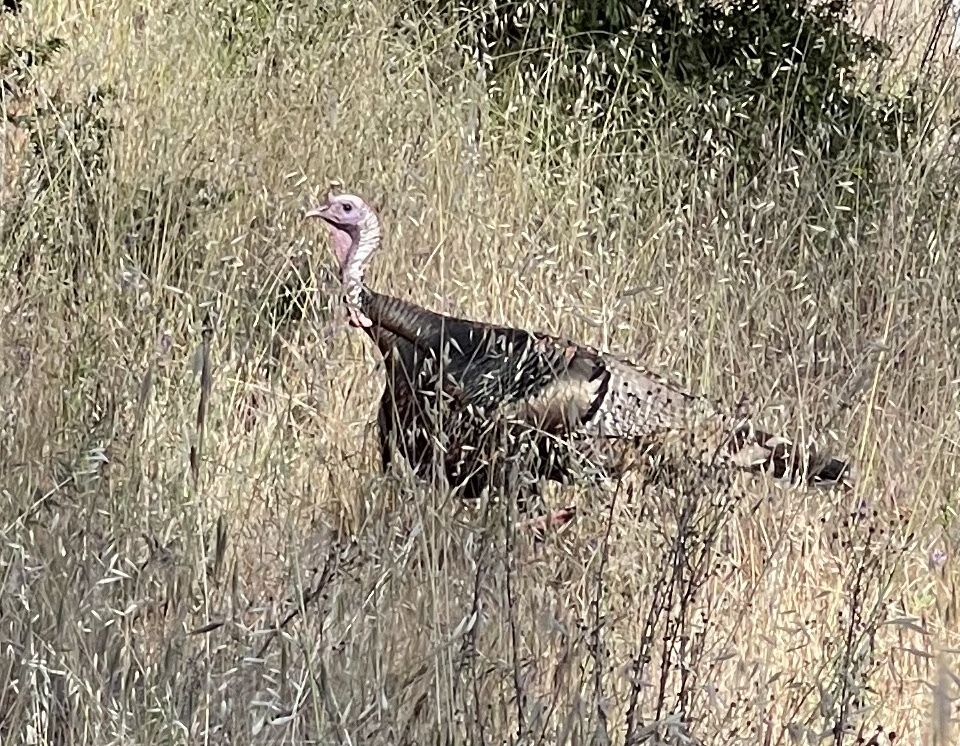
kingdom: Animalia
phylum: Chordata
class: Aves
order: Galliformes
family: Phasianidae
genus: Meleagris
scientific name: Meleagris gallopavo
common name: Wild turkey
